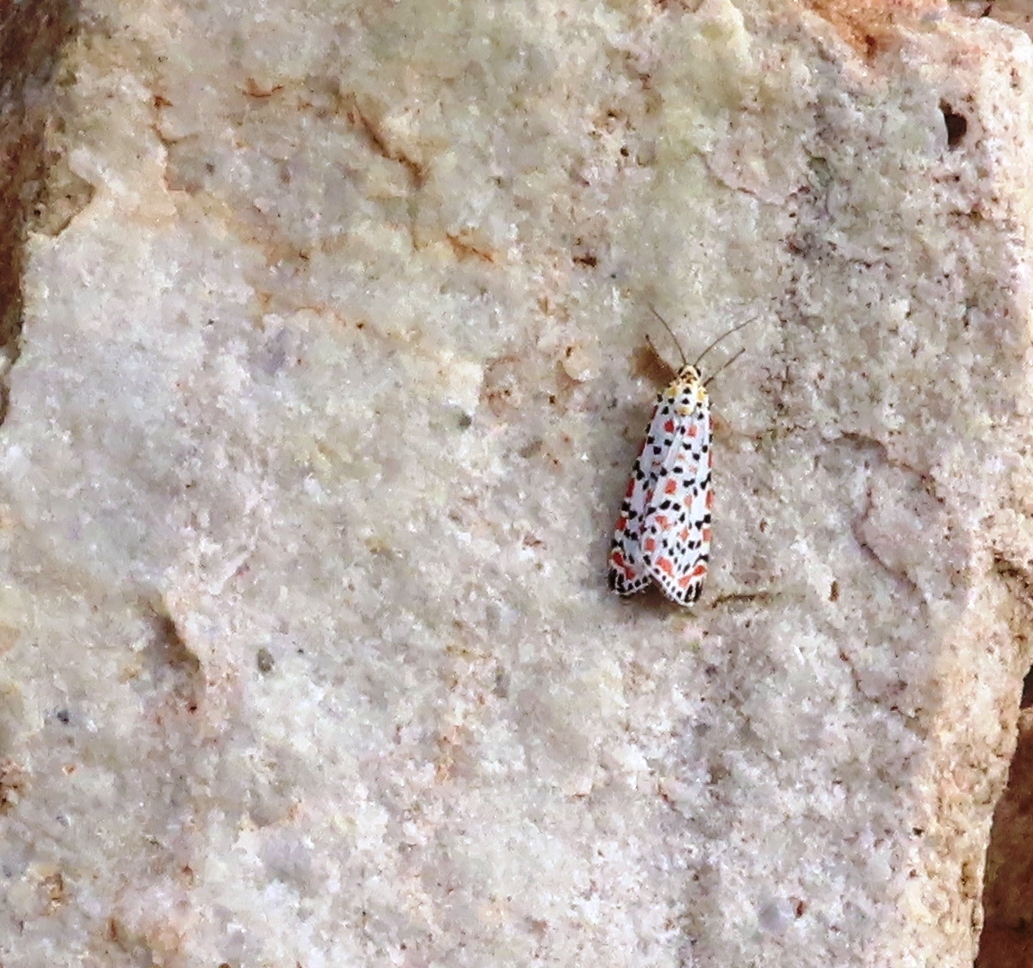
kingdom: Animalia
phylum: Arthropoda
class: Insecta
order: Lepidoptera
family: Erebidae
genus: Utetheisa
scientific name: Utetheisa pulchella
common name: Crimson speckled
